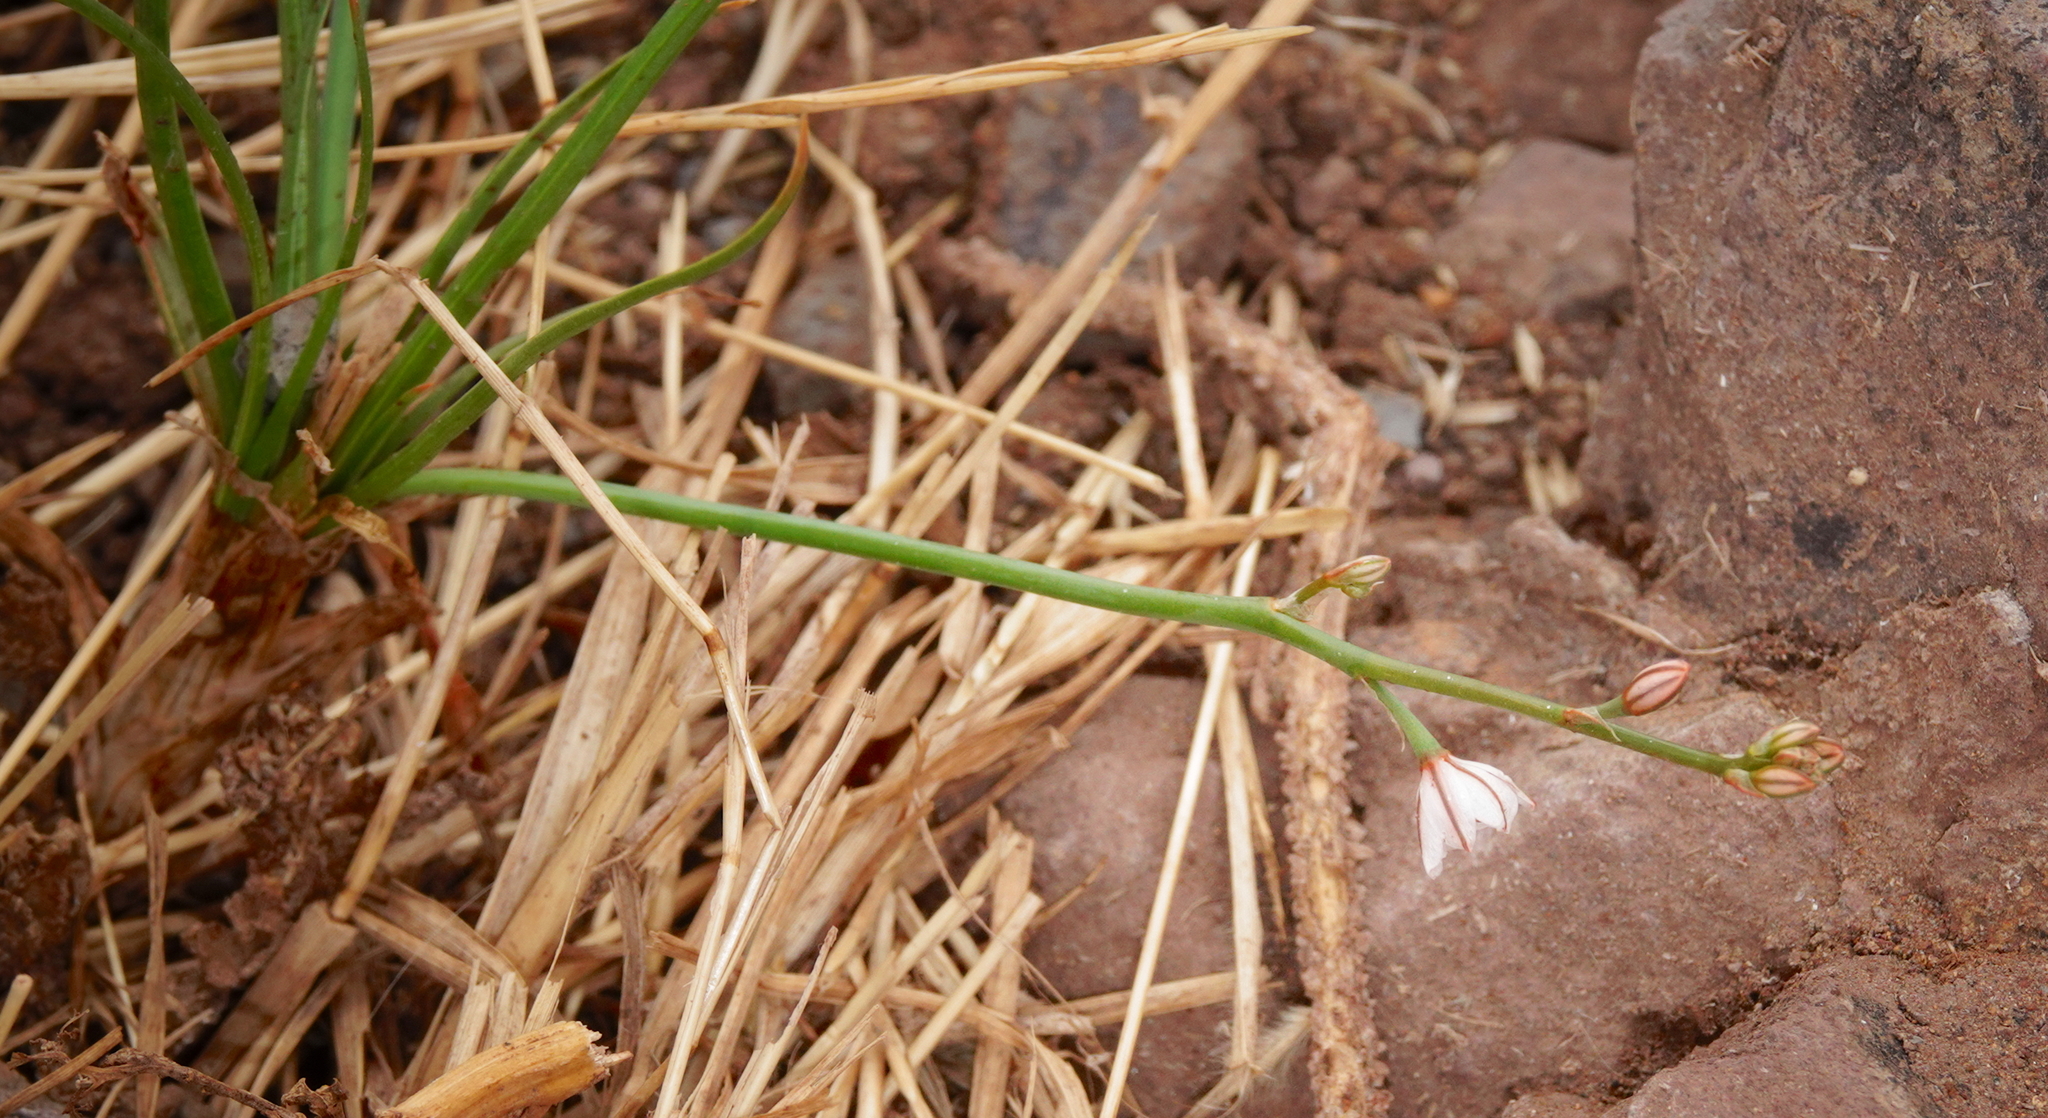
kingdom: Plantae
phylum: Tracheophyta
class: Liliopsida
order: Asparagales
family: Asphodelaceae
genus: Asphodelus
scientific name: Asphodelus fistulosus
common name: Onionweed
